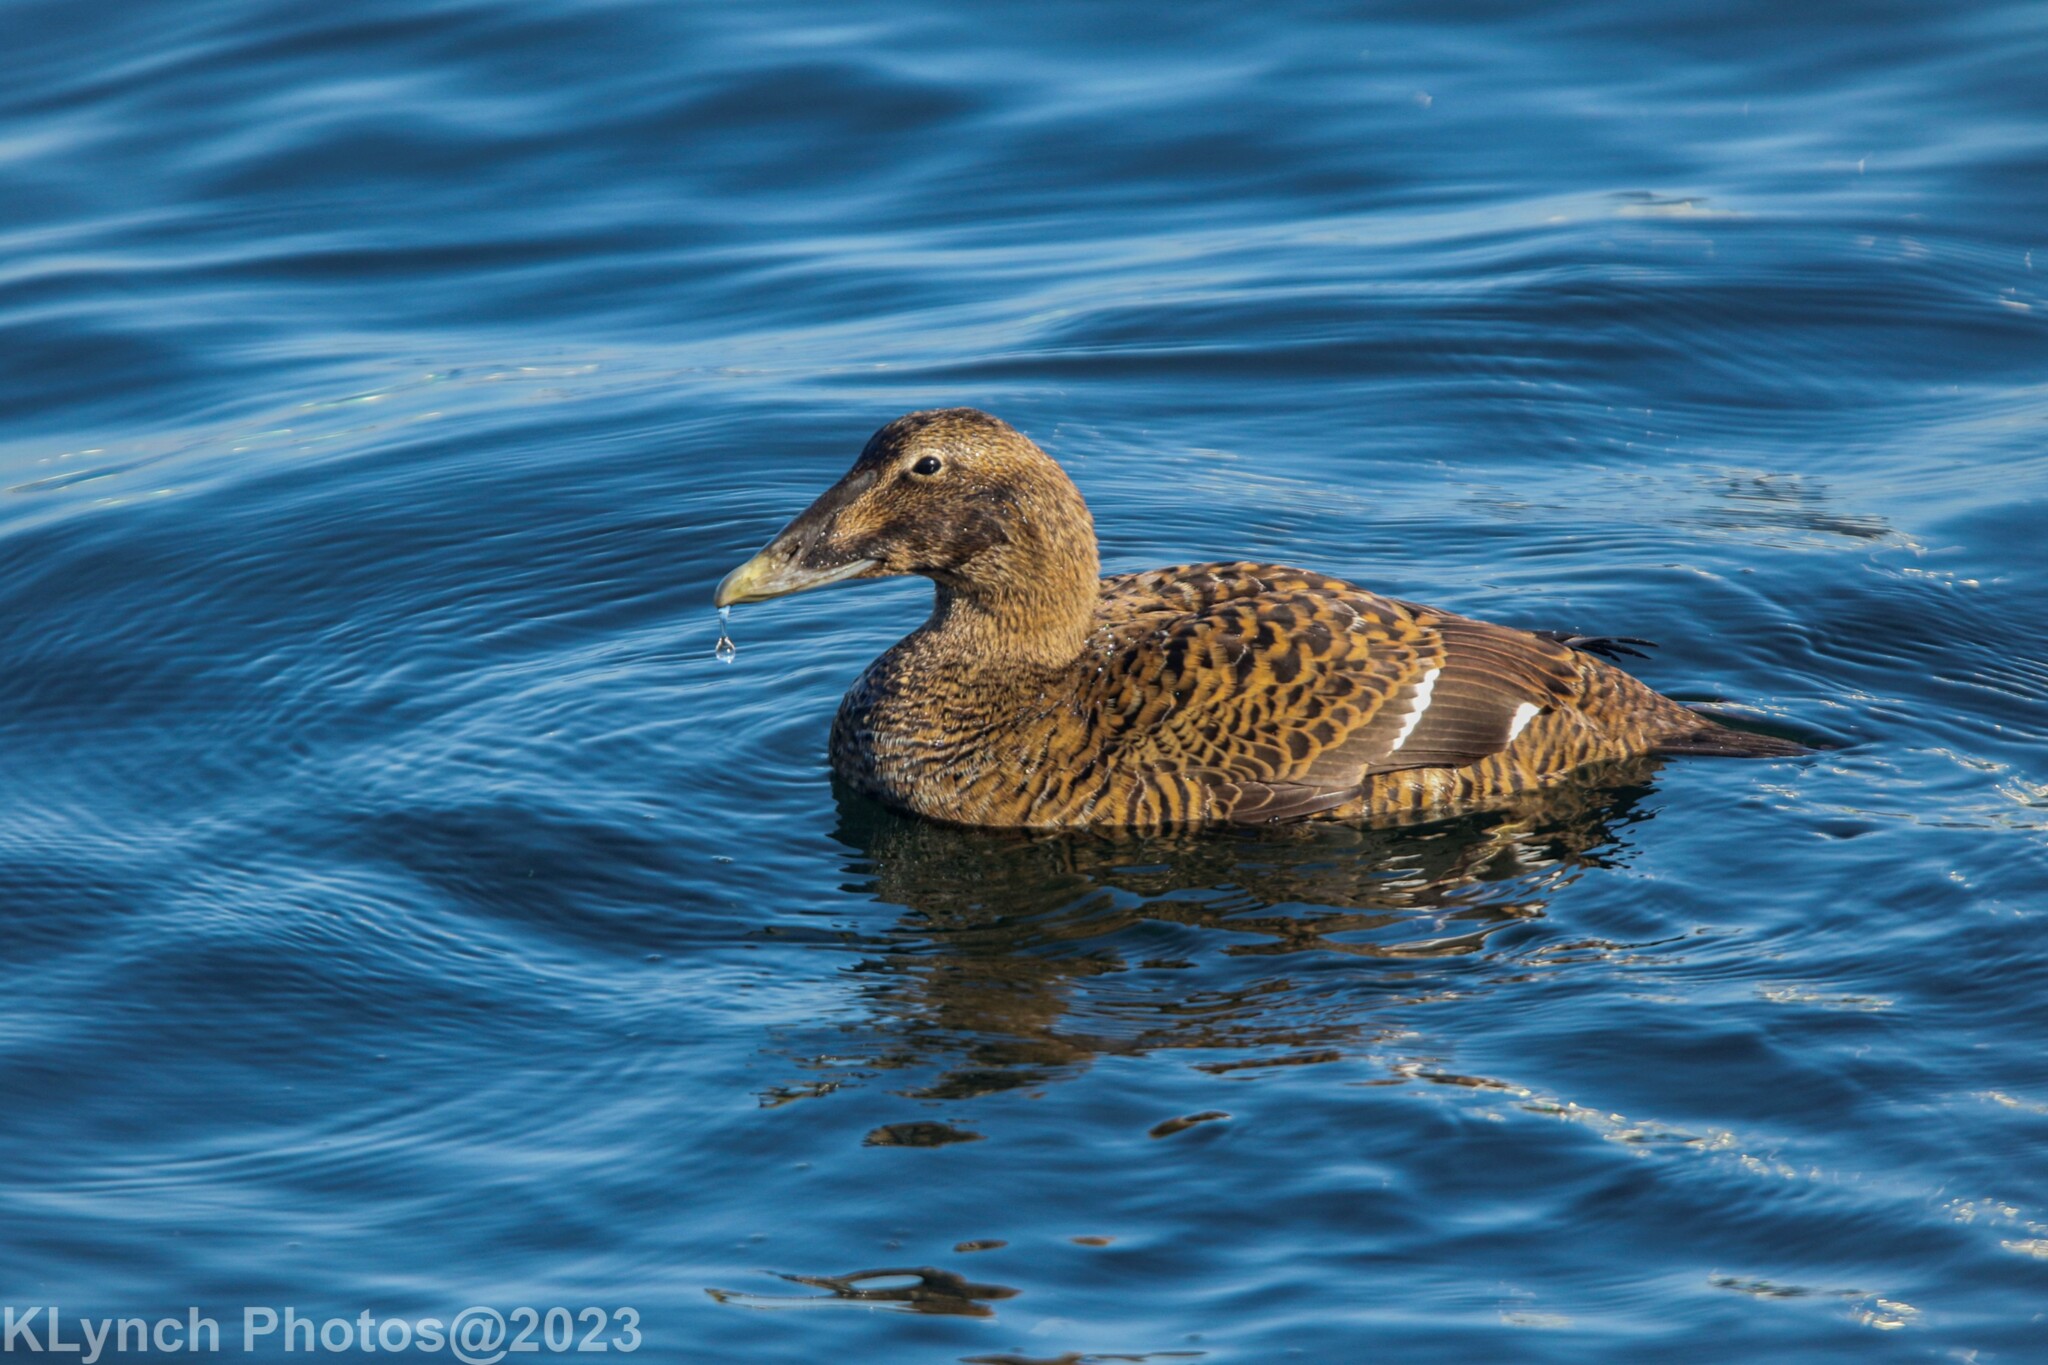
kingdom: Animalia
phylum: Chordata
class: Aves
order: Anseriformes
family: Anatidae
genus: Somateria
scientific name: Somateria mollissima
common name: Common eider
